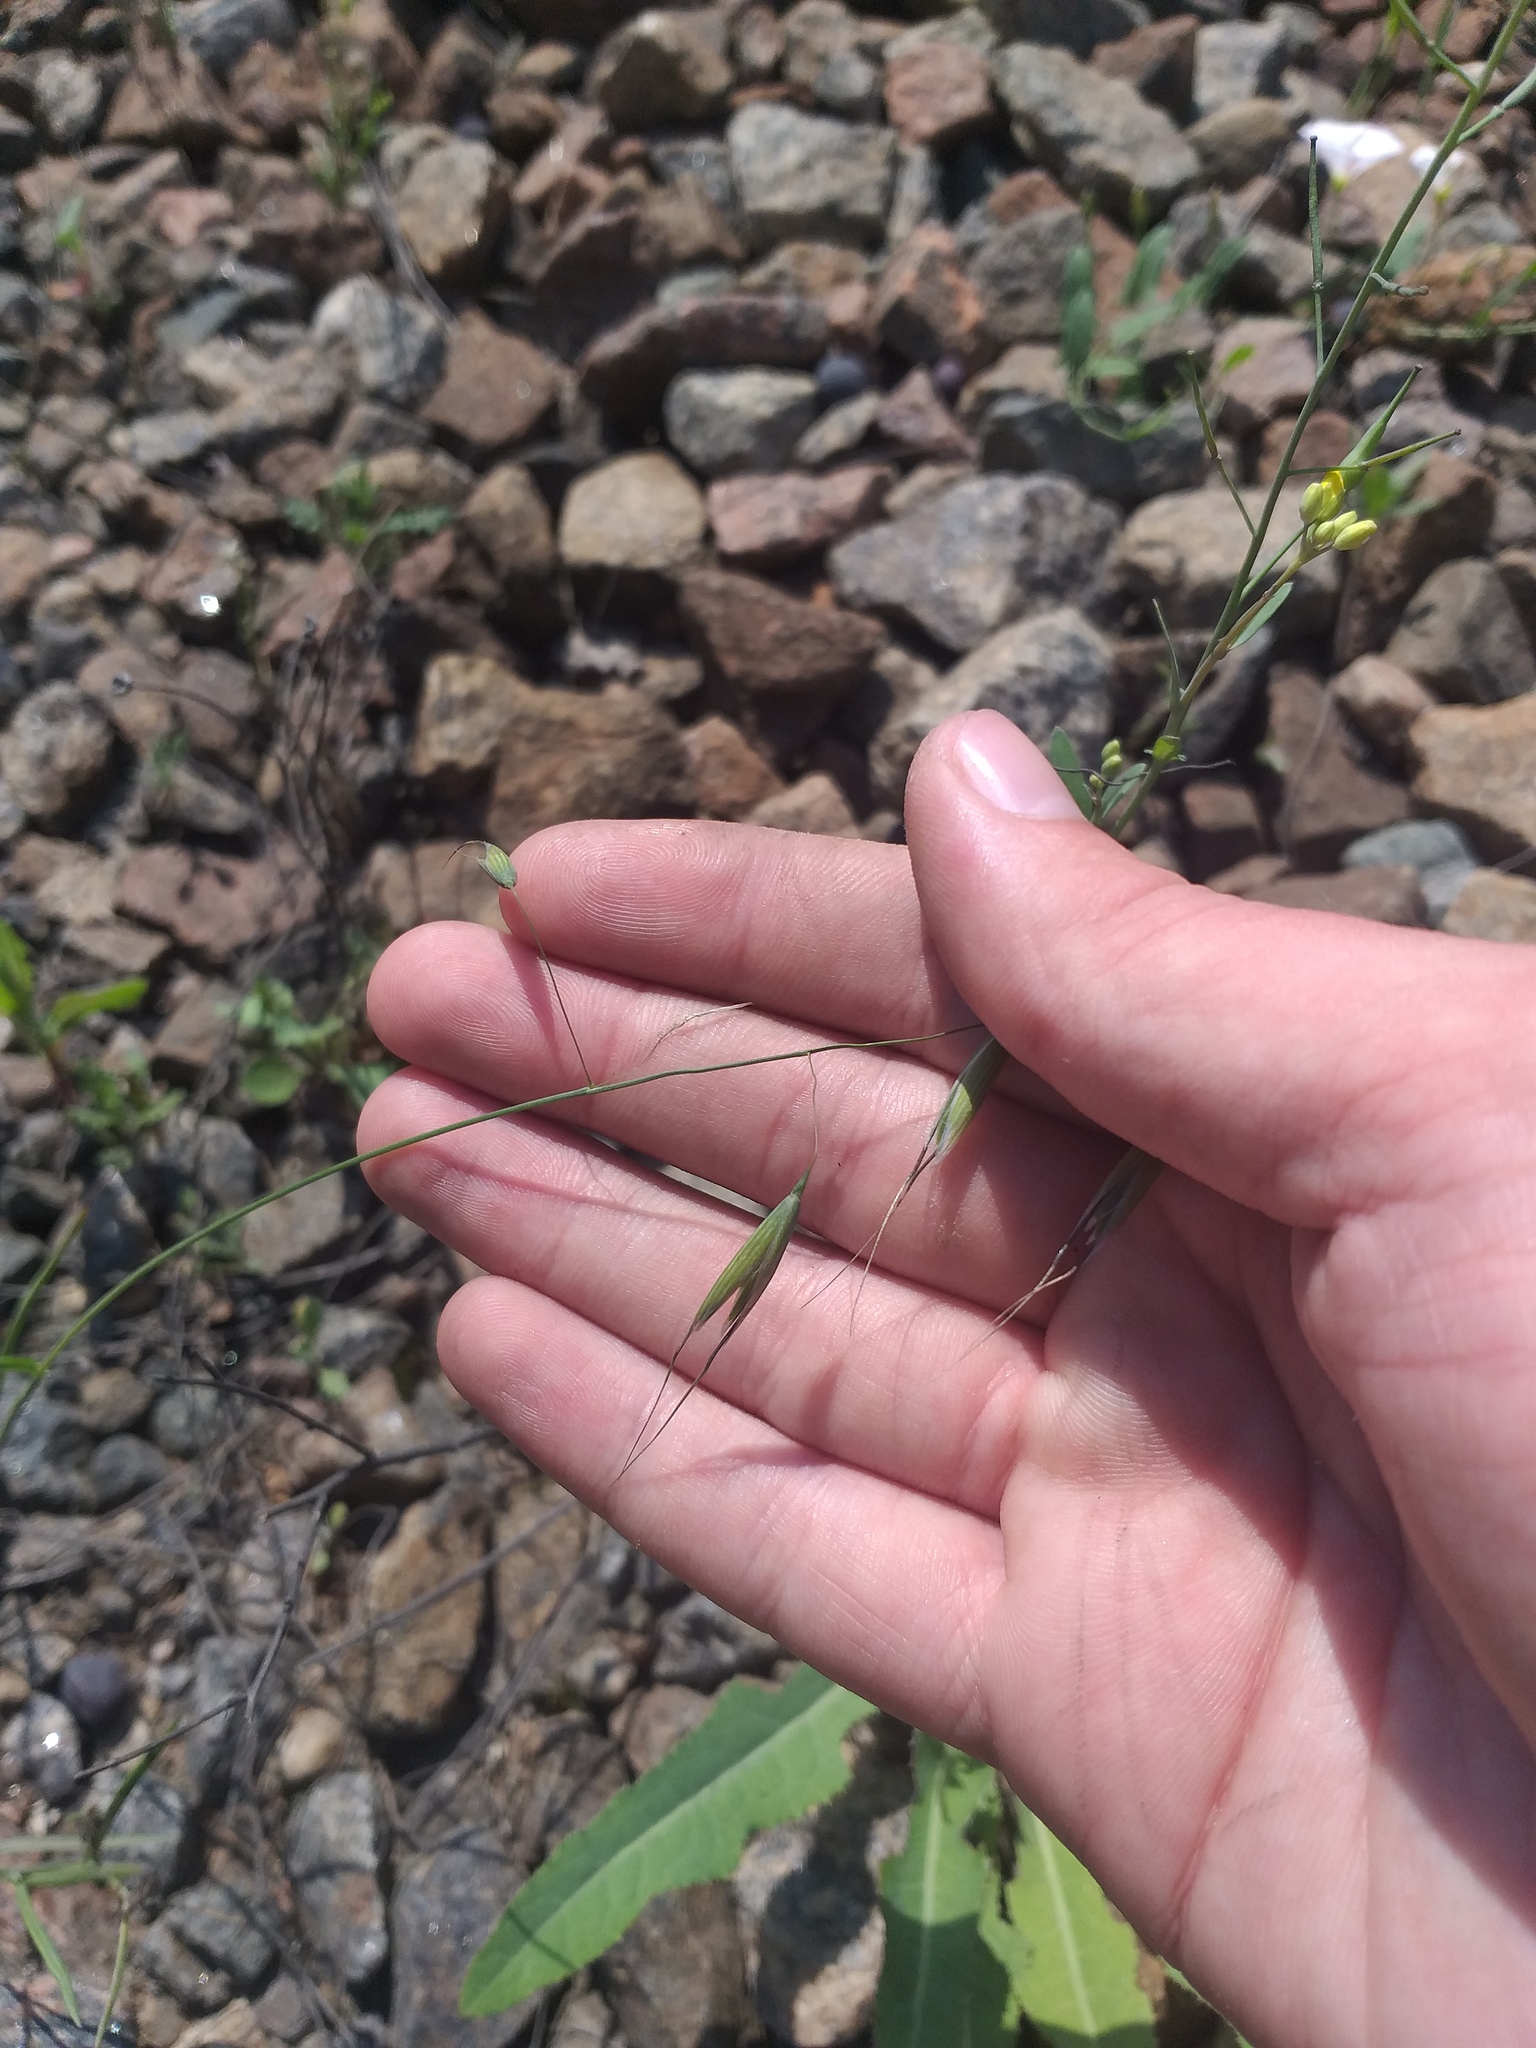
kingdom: Plantae
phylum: Tracheophyta
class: Liliopsida
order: Poales
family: Poaceae
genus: Avena
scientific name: Avena fatua
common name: Wild oat
